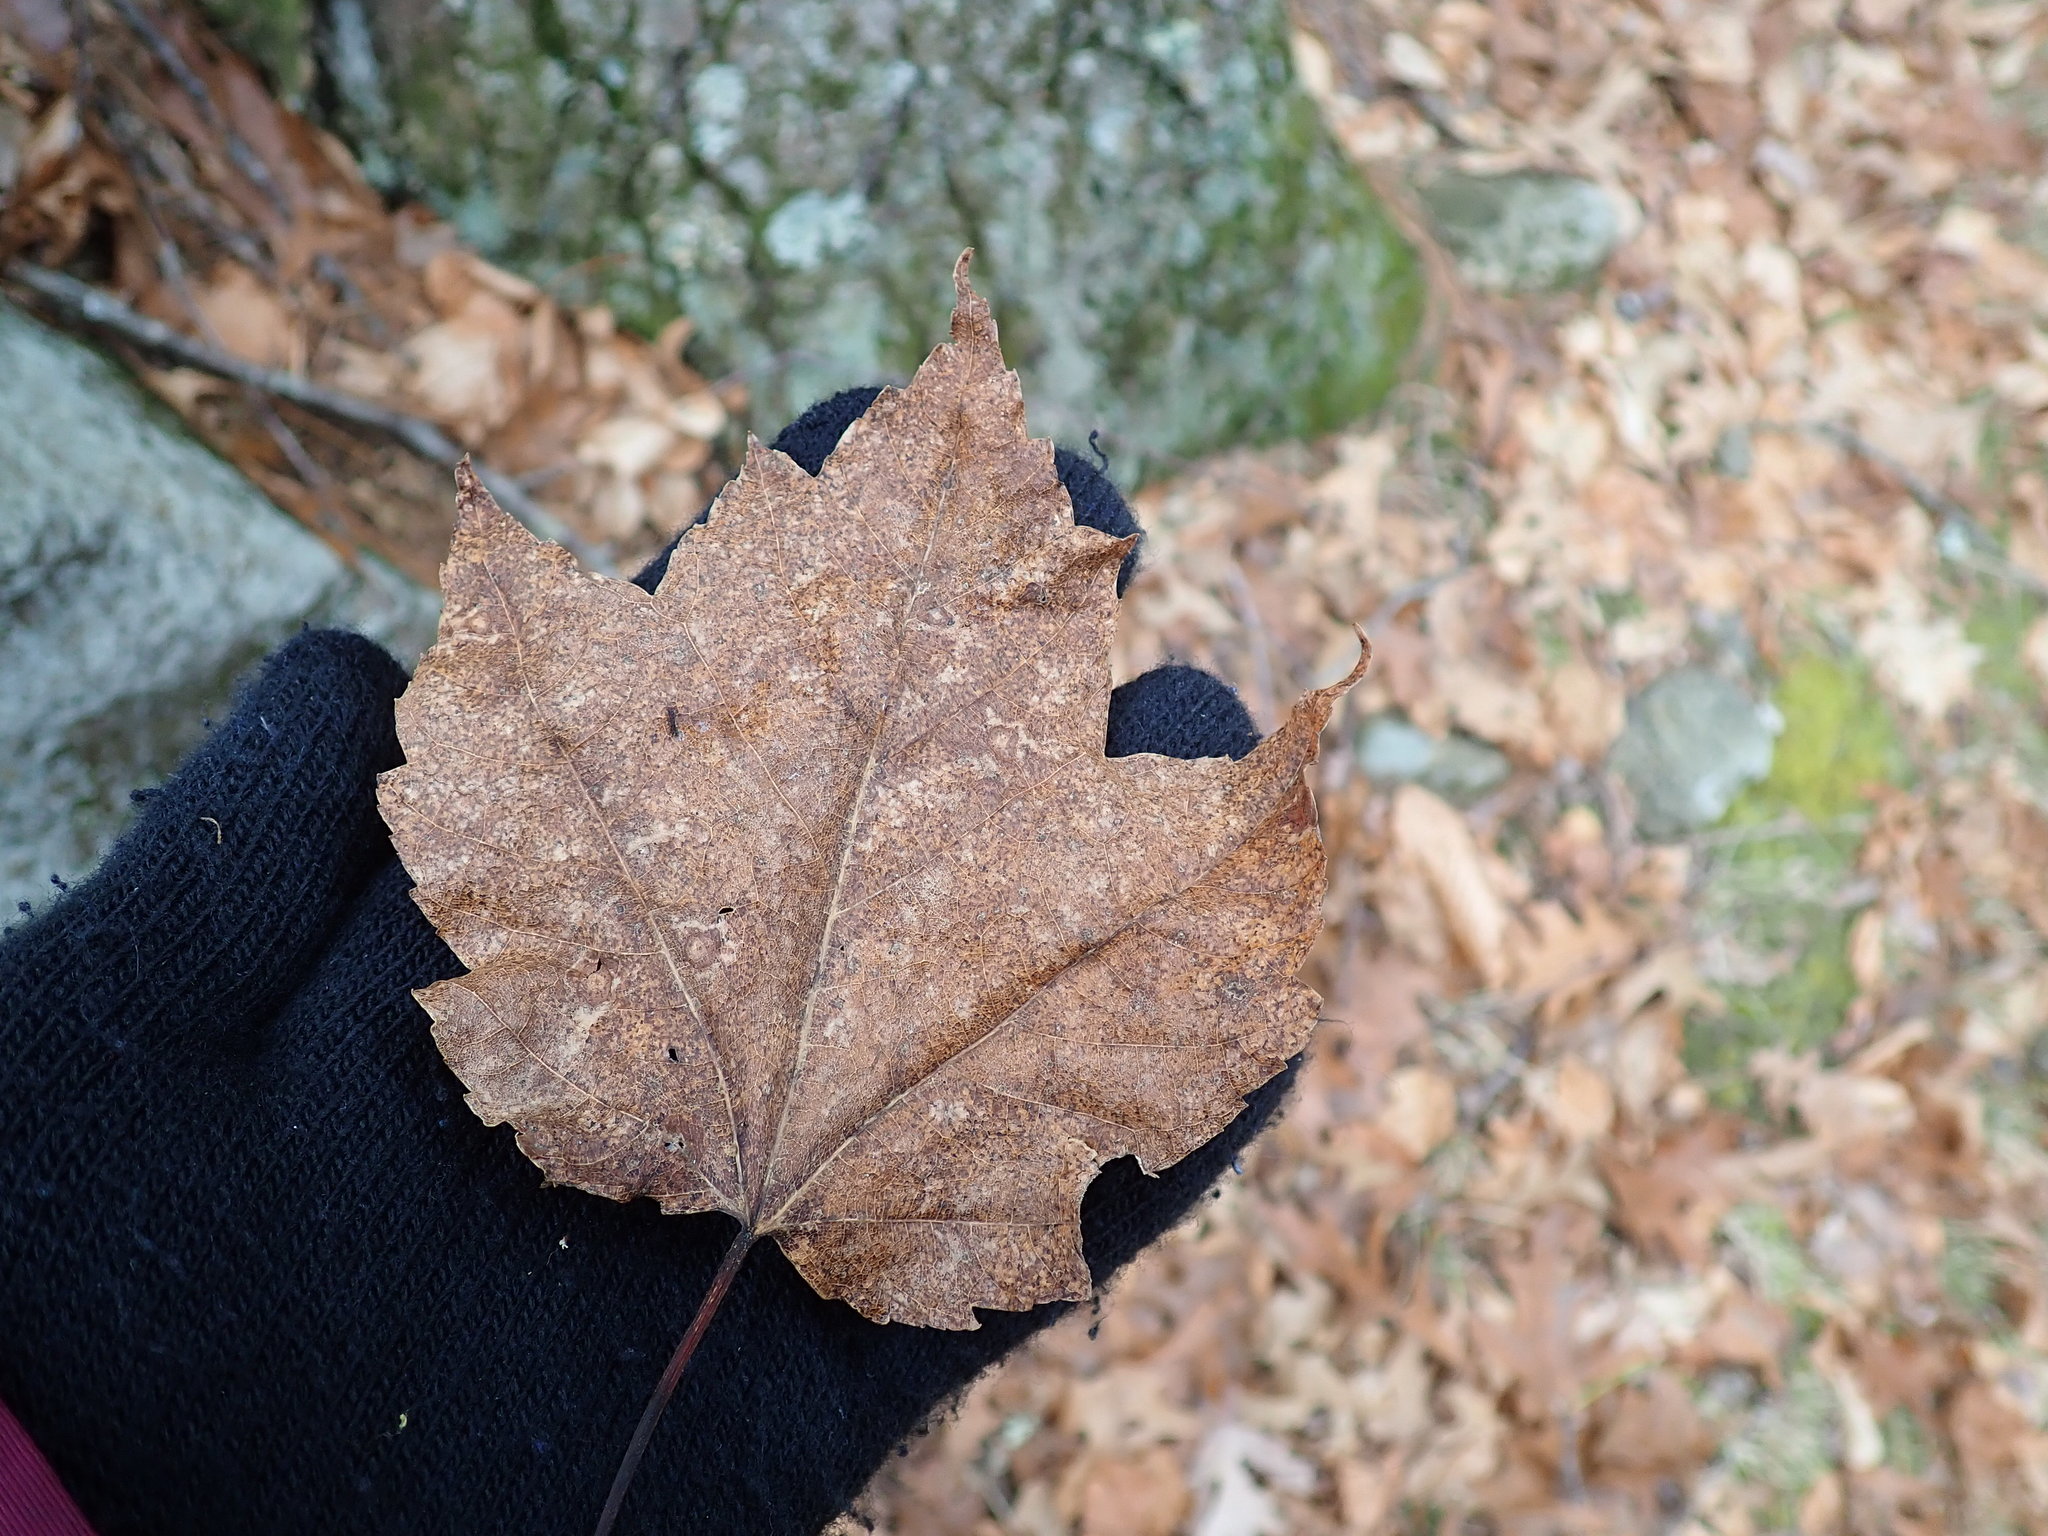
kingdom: Plantae
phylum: Tracheophyta
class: Magnoliopsida
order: Sapindales
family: Sapindaceae
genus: Acer
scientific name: Acer rubrum
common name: Red maple
